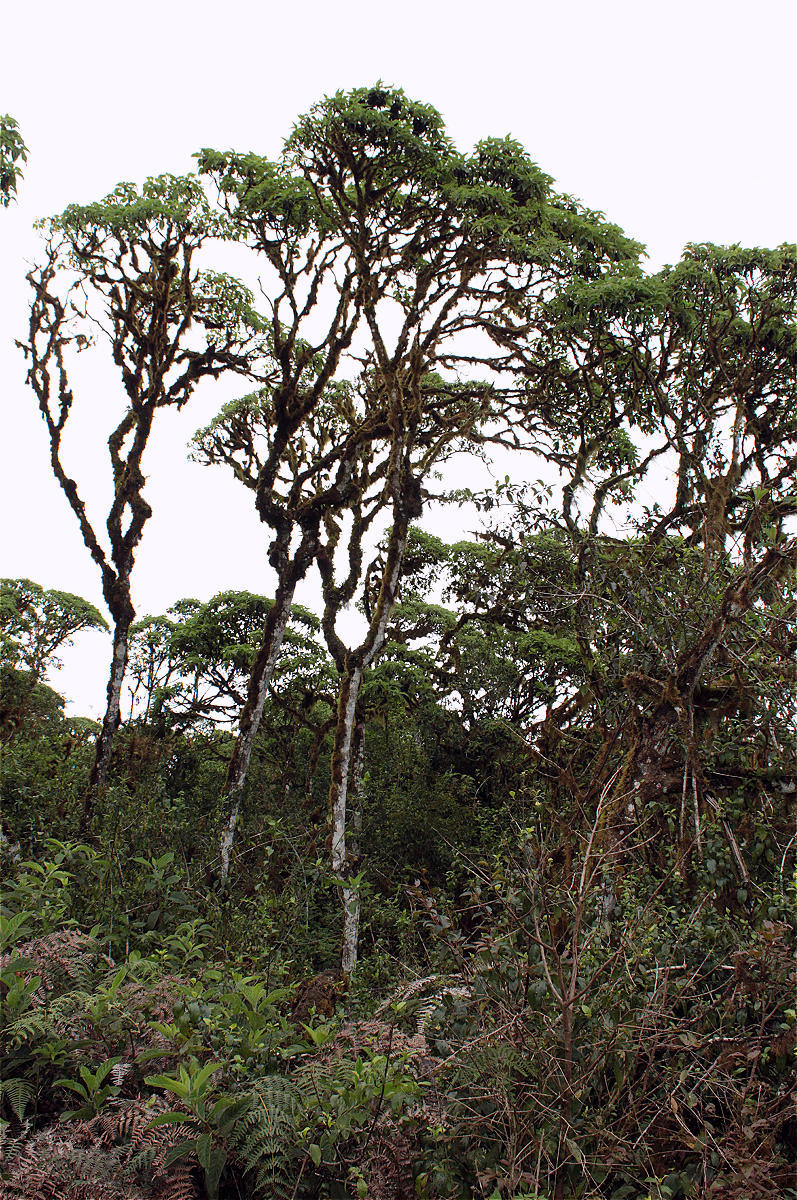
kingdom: Plantae
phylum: Tracheophyta
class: Magnoliopsida
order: Asterales
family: Asteraceae
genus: Scalesia
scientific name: Scalesia pedunculata
